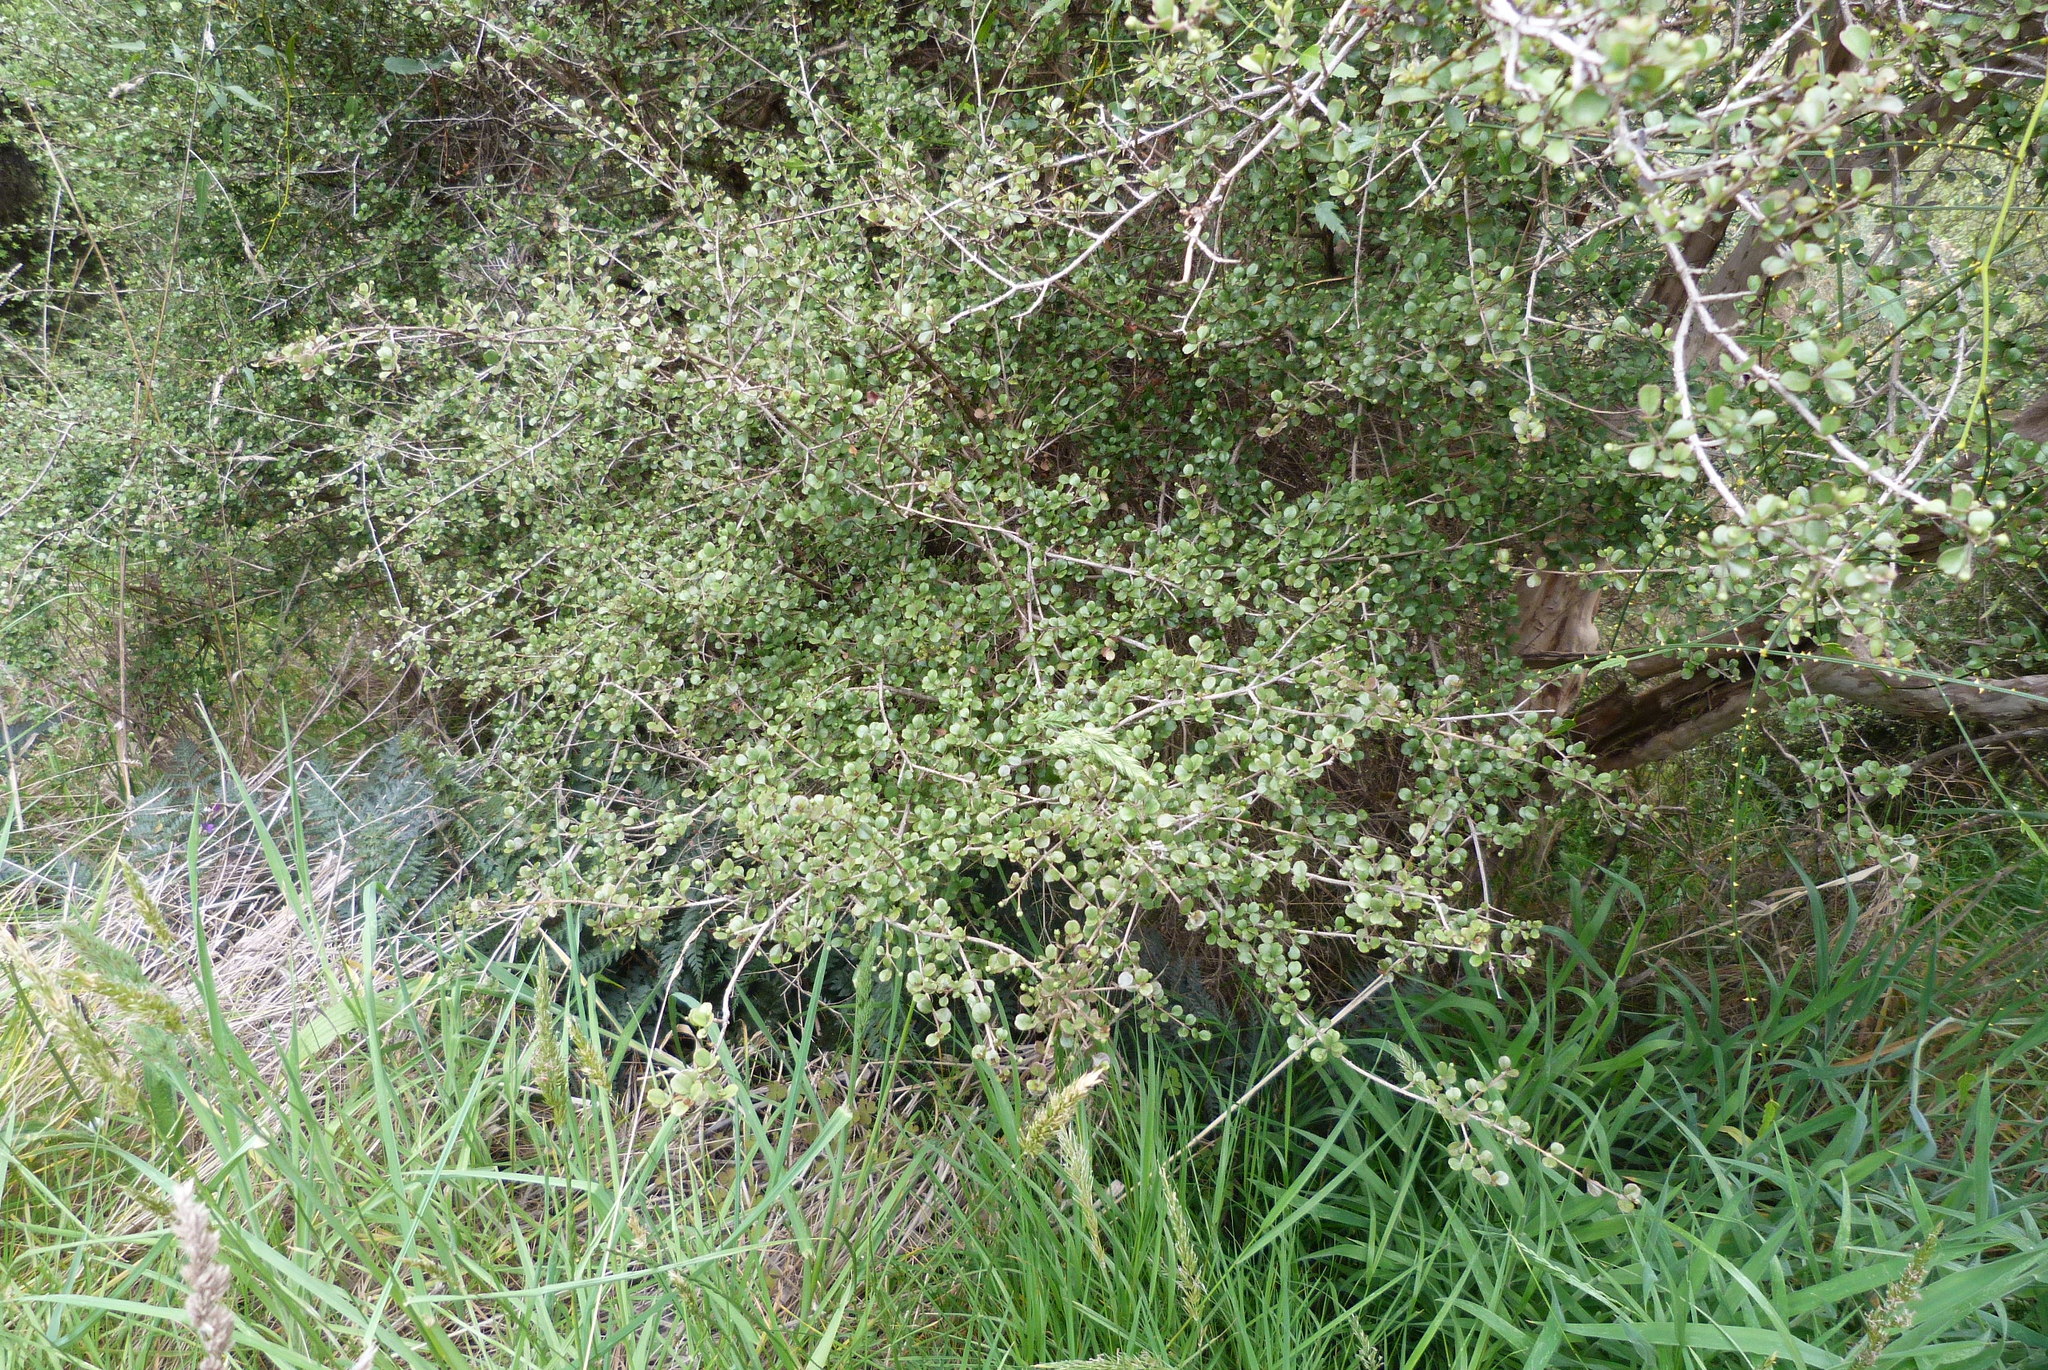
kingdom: Plantae
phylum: Tracheophyta
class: Magnoliopsida
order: Myrtales
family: Myrtaceae
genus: Lophomyrtus
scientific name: Lophomyrtus obcordata
